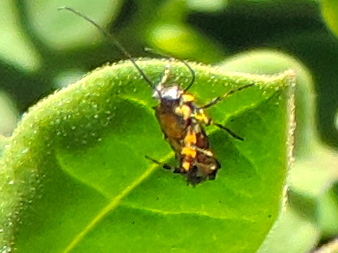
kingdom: Animalia
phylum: Arthropoda
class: Insecta
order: Lepidoptera
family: Heliodinidae
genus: Heliodines
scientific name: Heliodines
